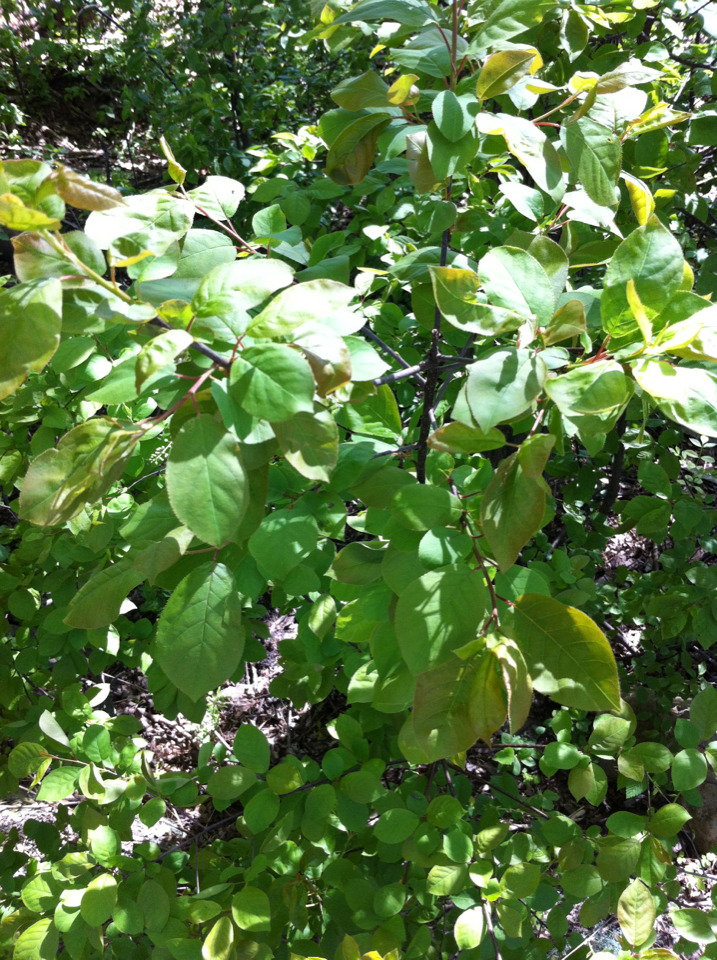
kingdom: Plantae
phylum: Tracheophyta
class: Magnoliopsida
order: Rosales
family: Rosaceae
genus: Prunus
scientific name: Prunus virginiana
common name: Chokecherry
